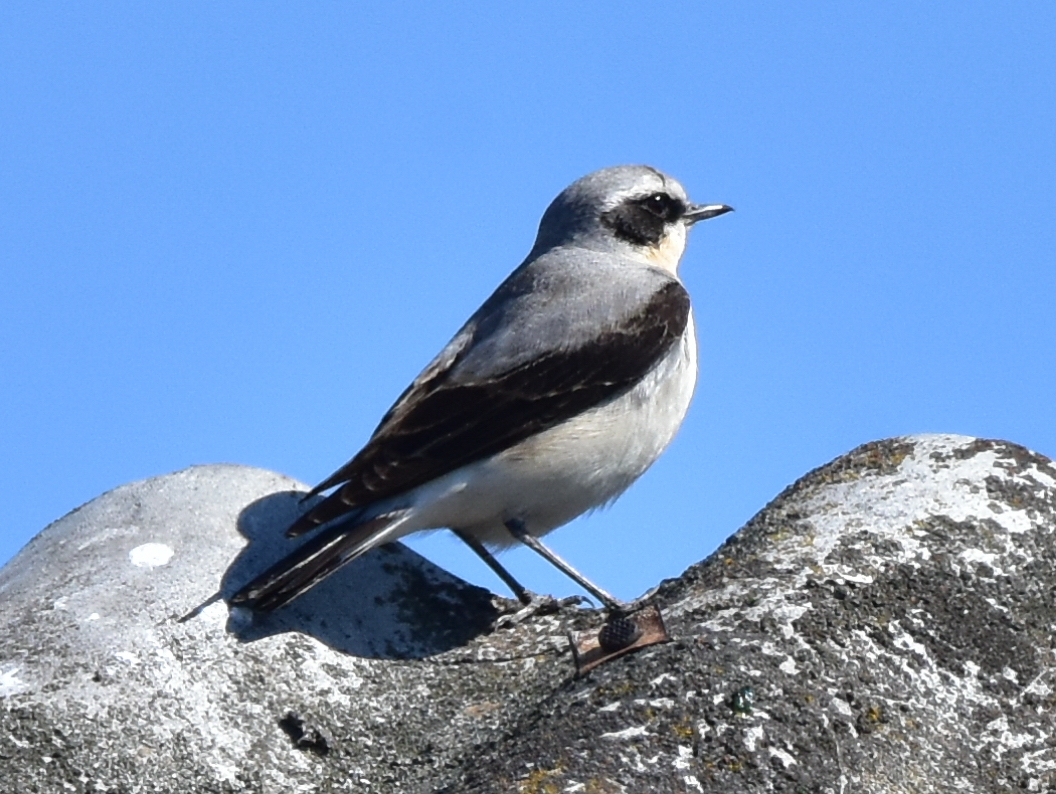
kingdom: Animalia
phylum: Chordata
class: Aves
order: Passeriformes
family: Muscicapidae
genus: Oenanthe
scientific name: Oenanthe oenanthe
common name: Northern wheatear
